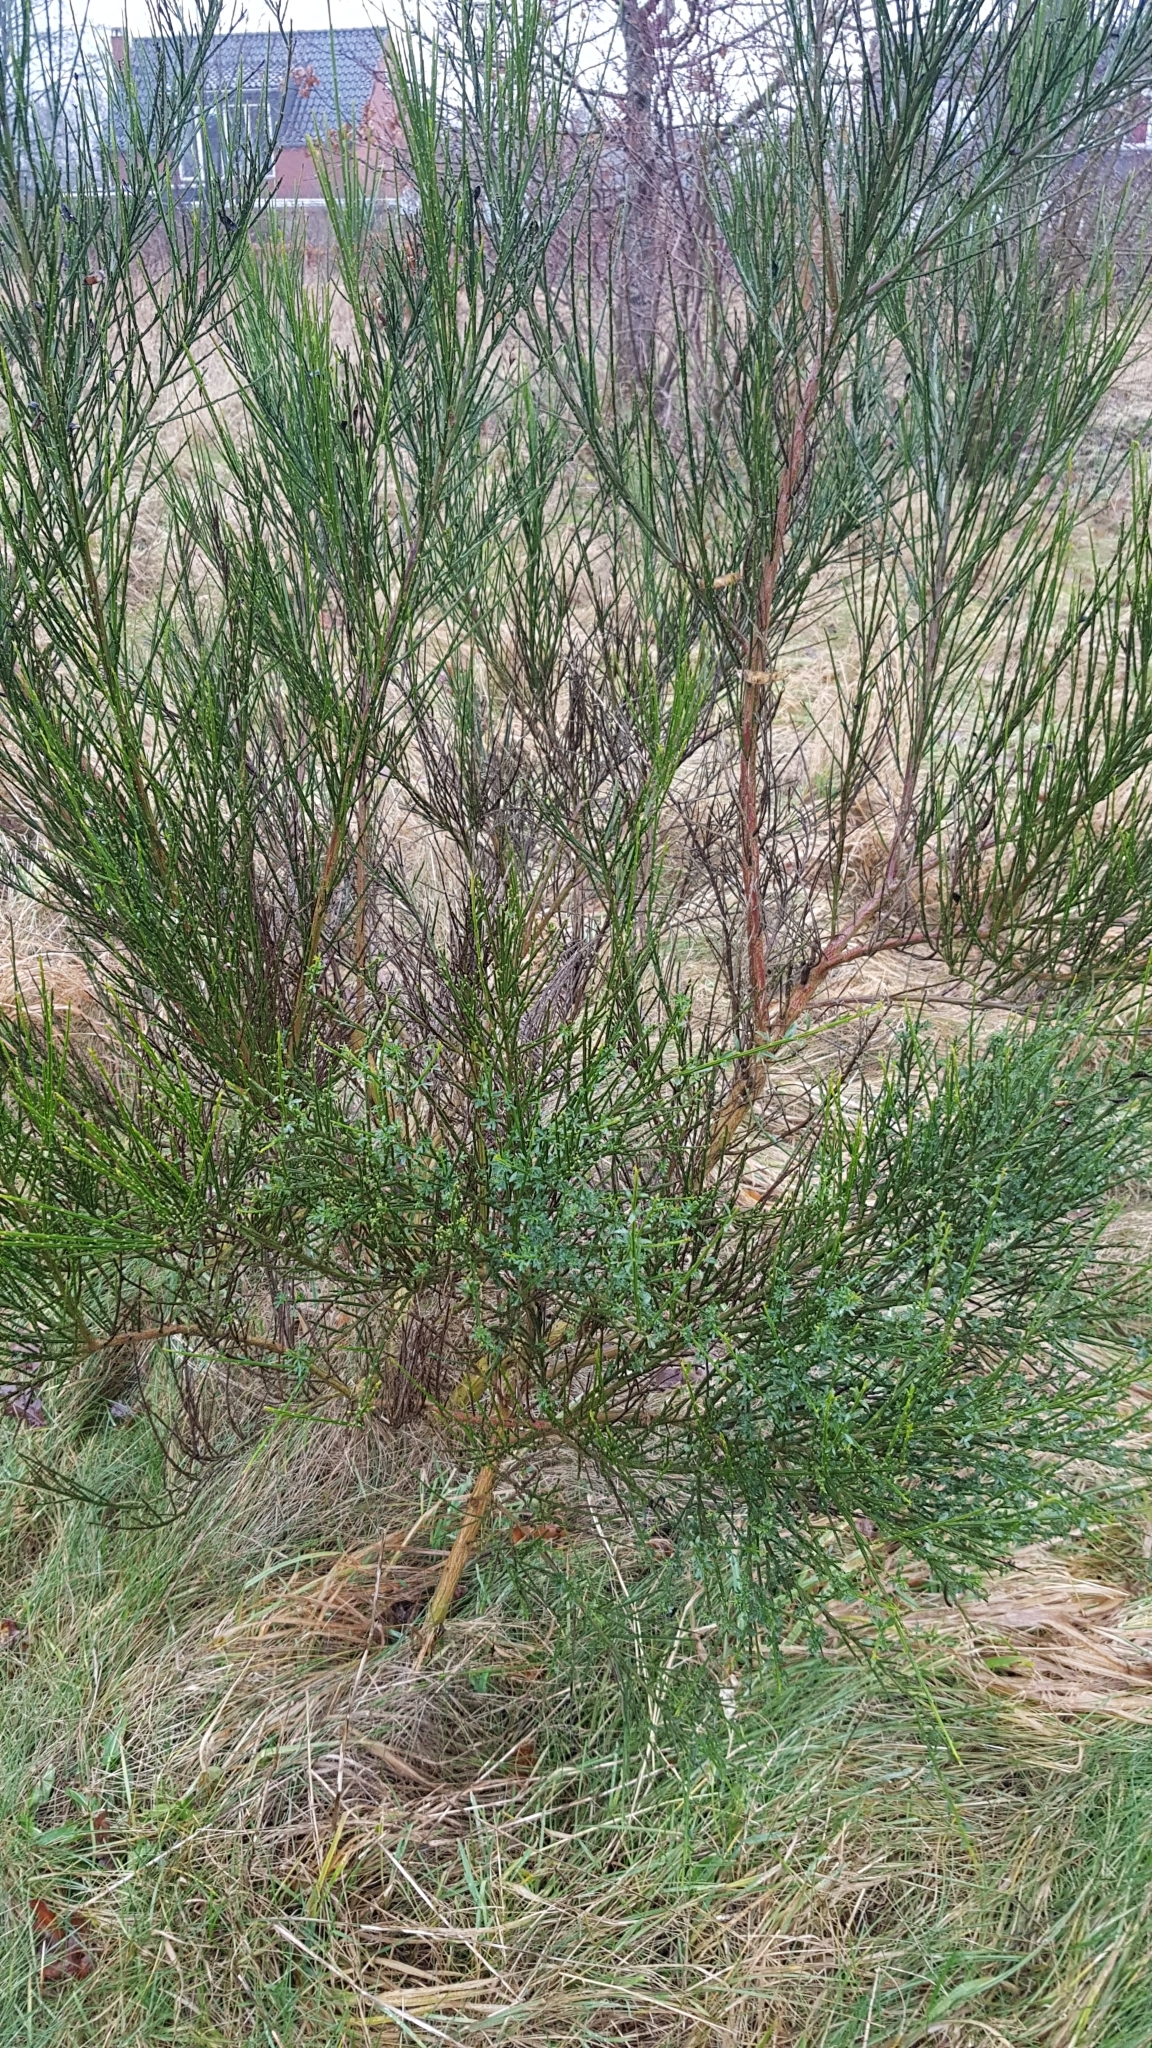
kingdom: Plantae
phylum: Tracheophyta
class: Magnoliopsida
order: Fabales
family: Fabaceae
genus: Cytisus
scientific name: Cytisus scoparius
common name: Scotch broom
